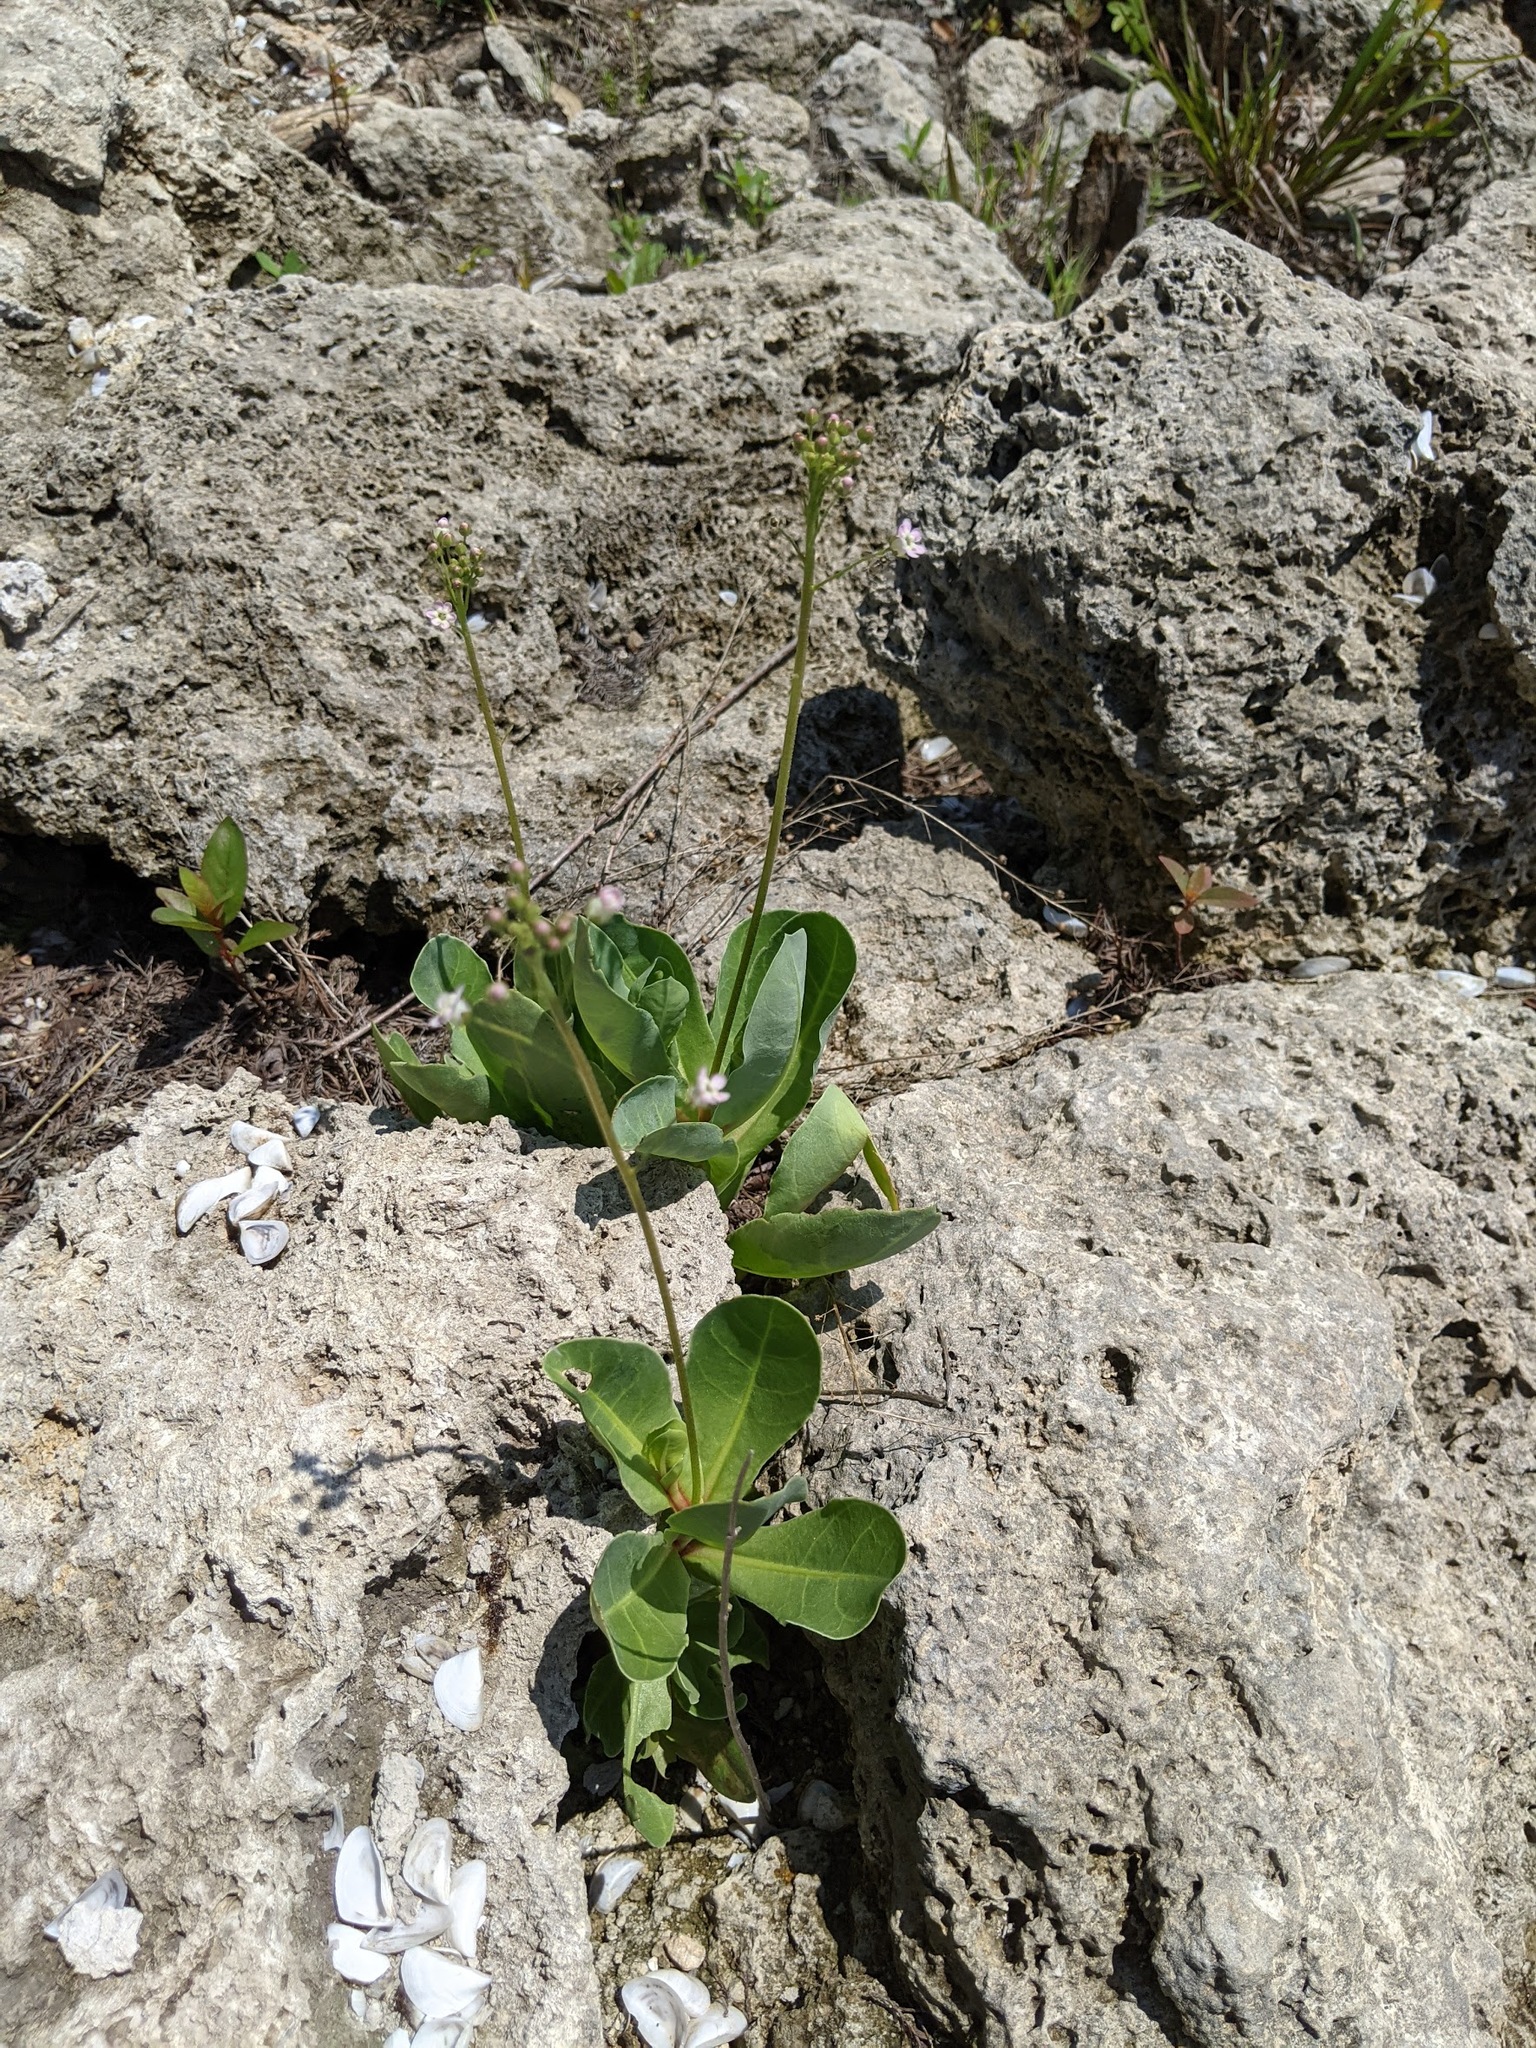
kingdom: Plantae
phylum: Tracheophyta
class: Magnoliopsida
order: Ericales
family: Primulaceae
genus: Samolus
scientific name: Samolus ebracteatus
